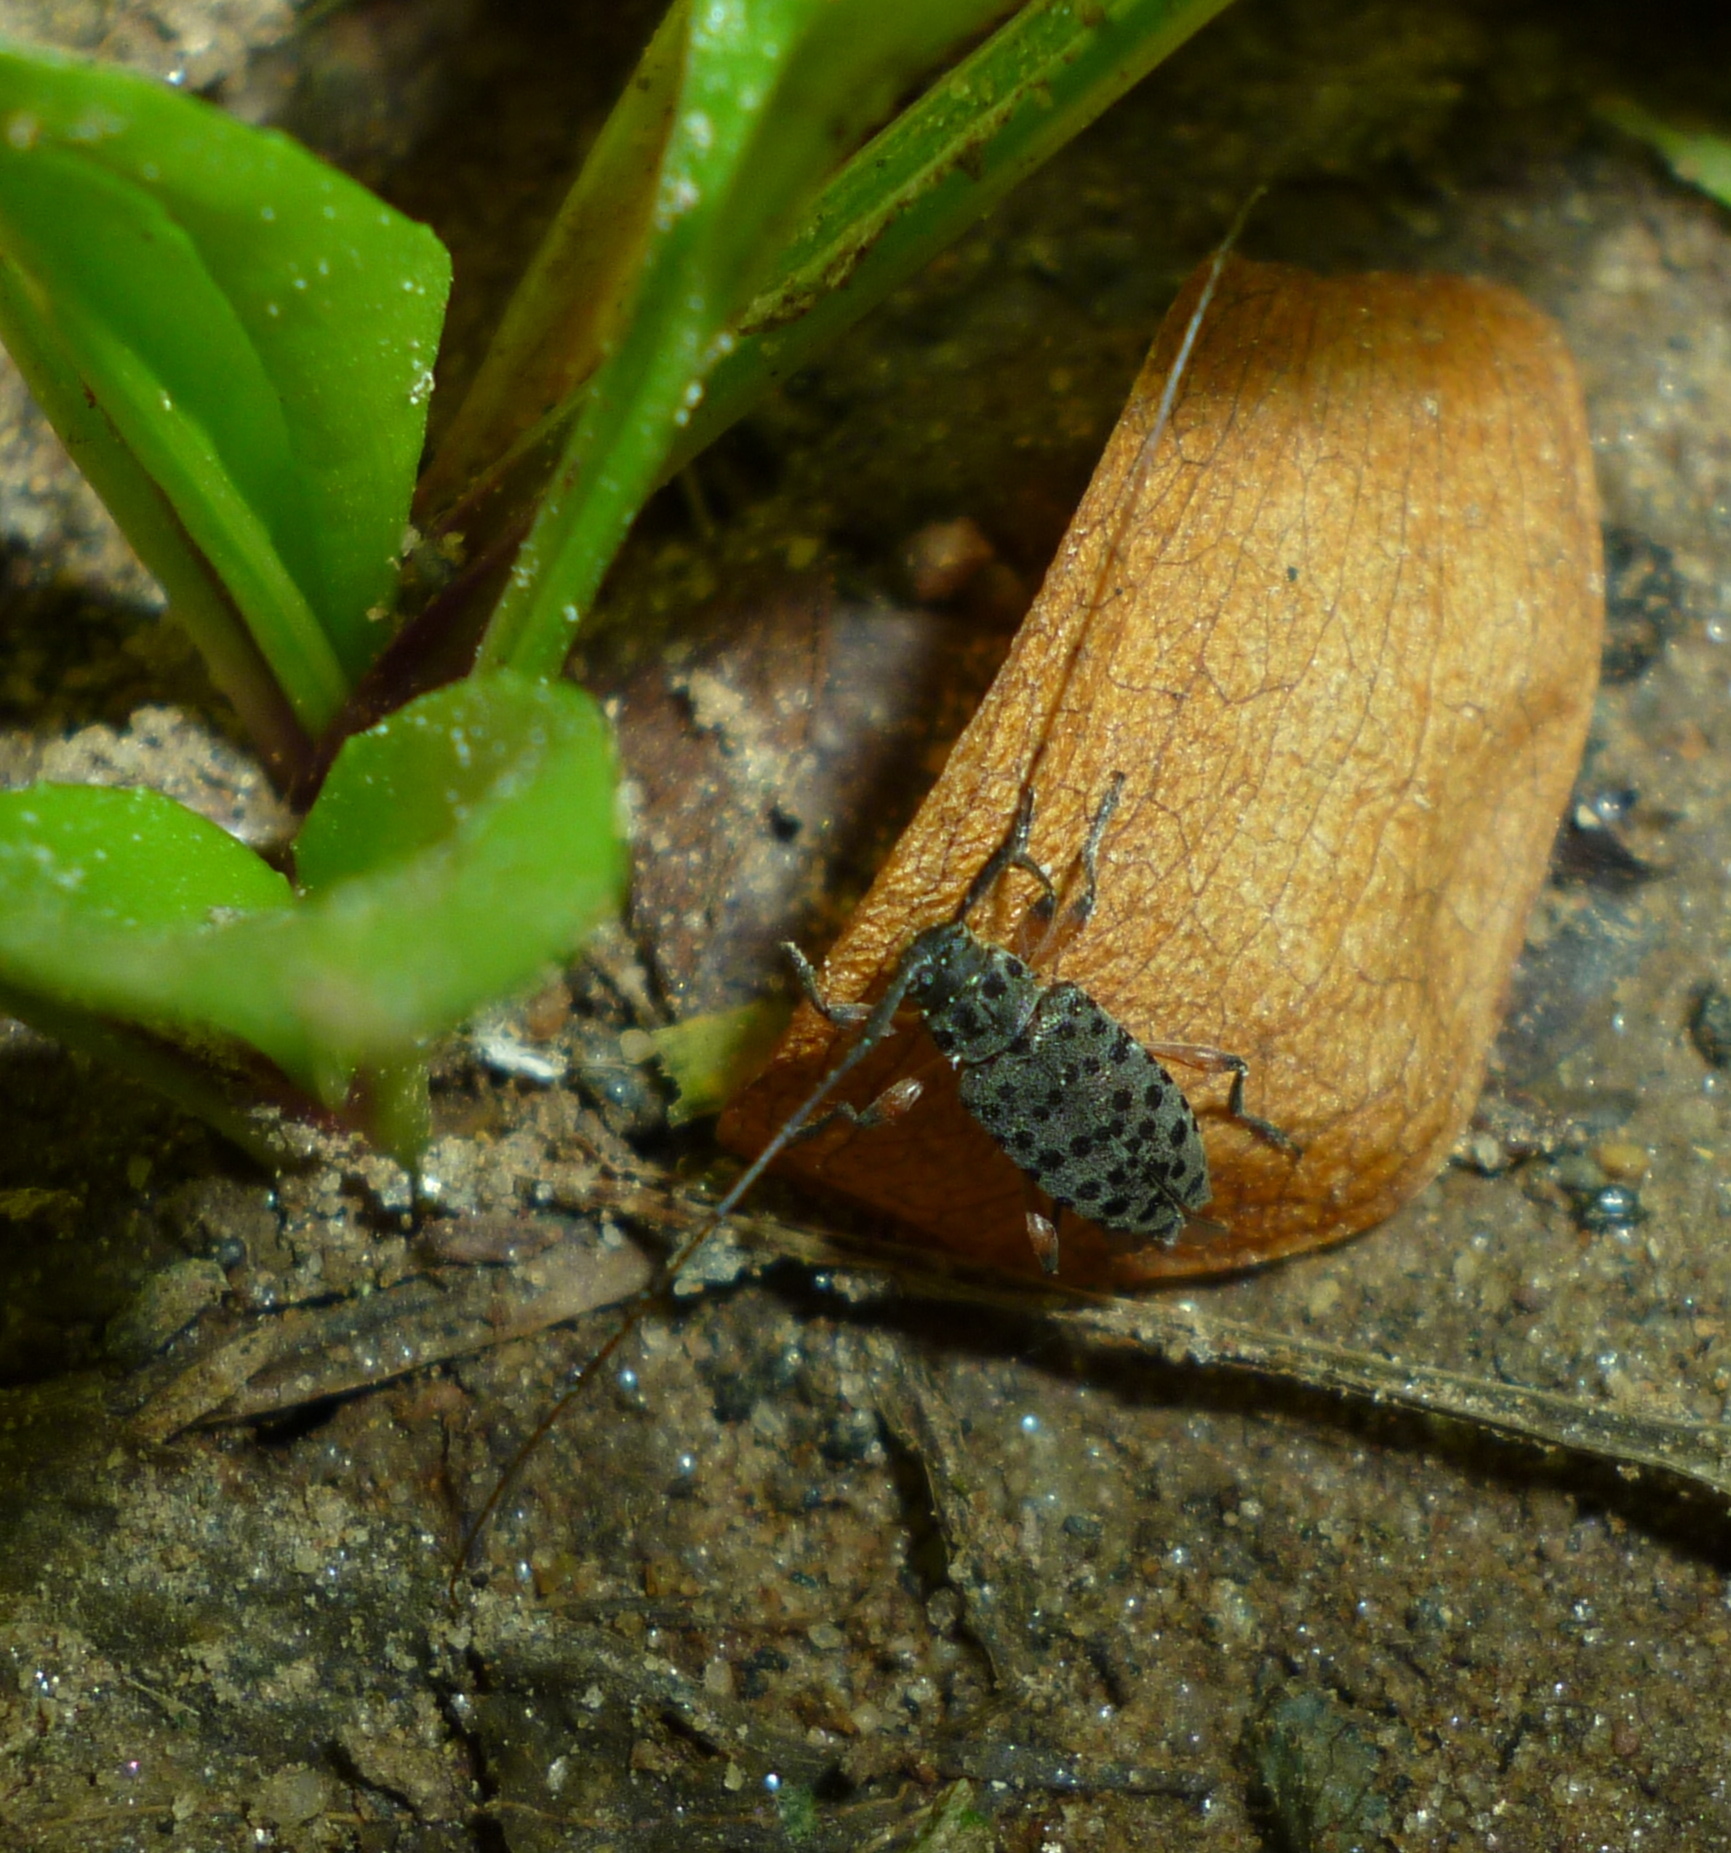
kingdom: Animalia
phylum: Arthropoda
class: Insecta
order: Coleoptera
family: Cerambycidae
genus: Hyperplatys
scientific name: Hyperplatys aspersa
